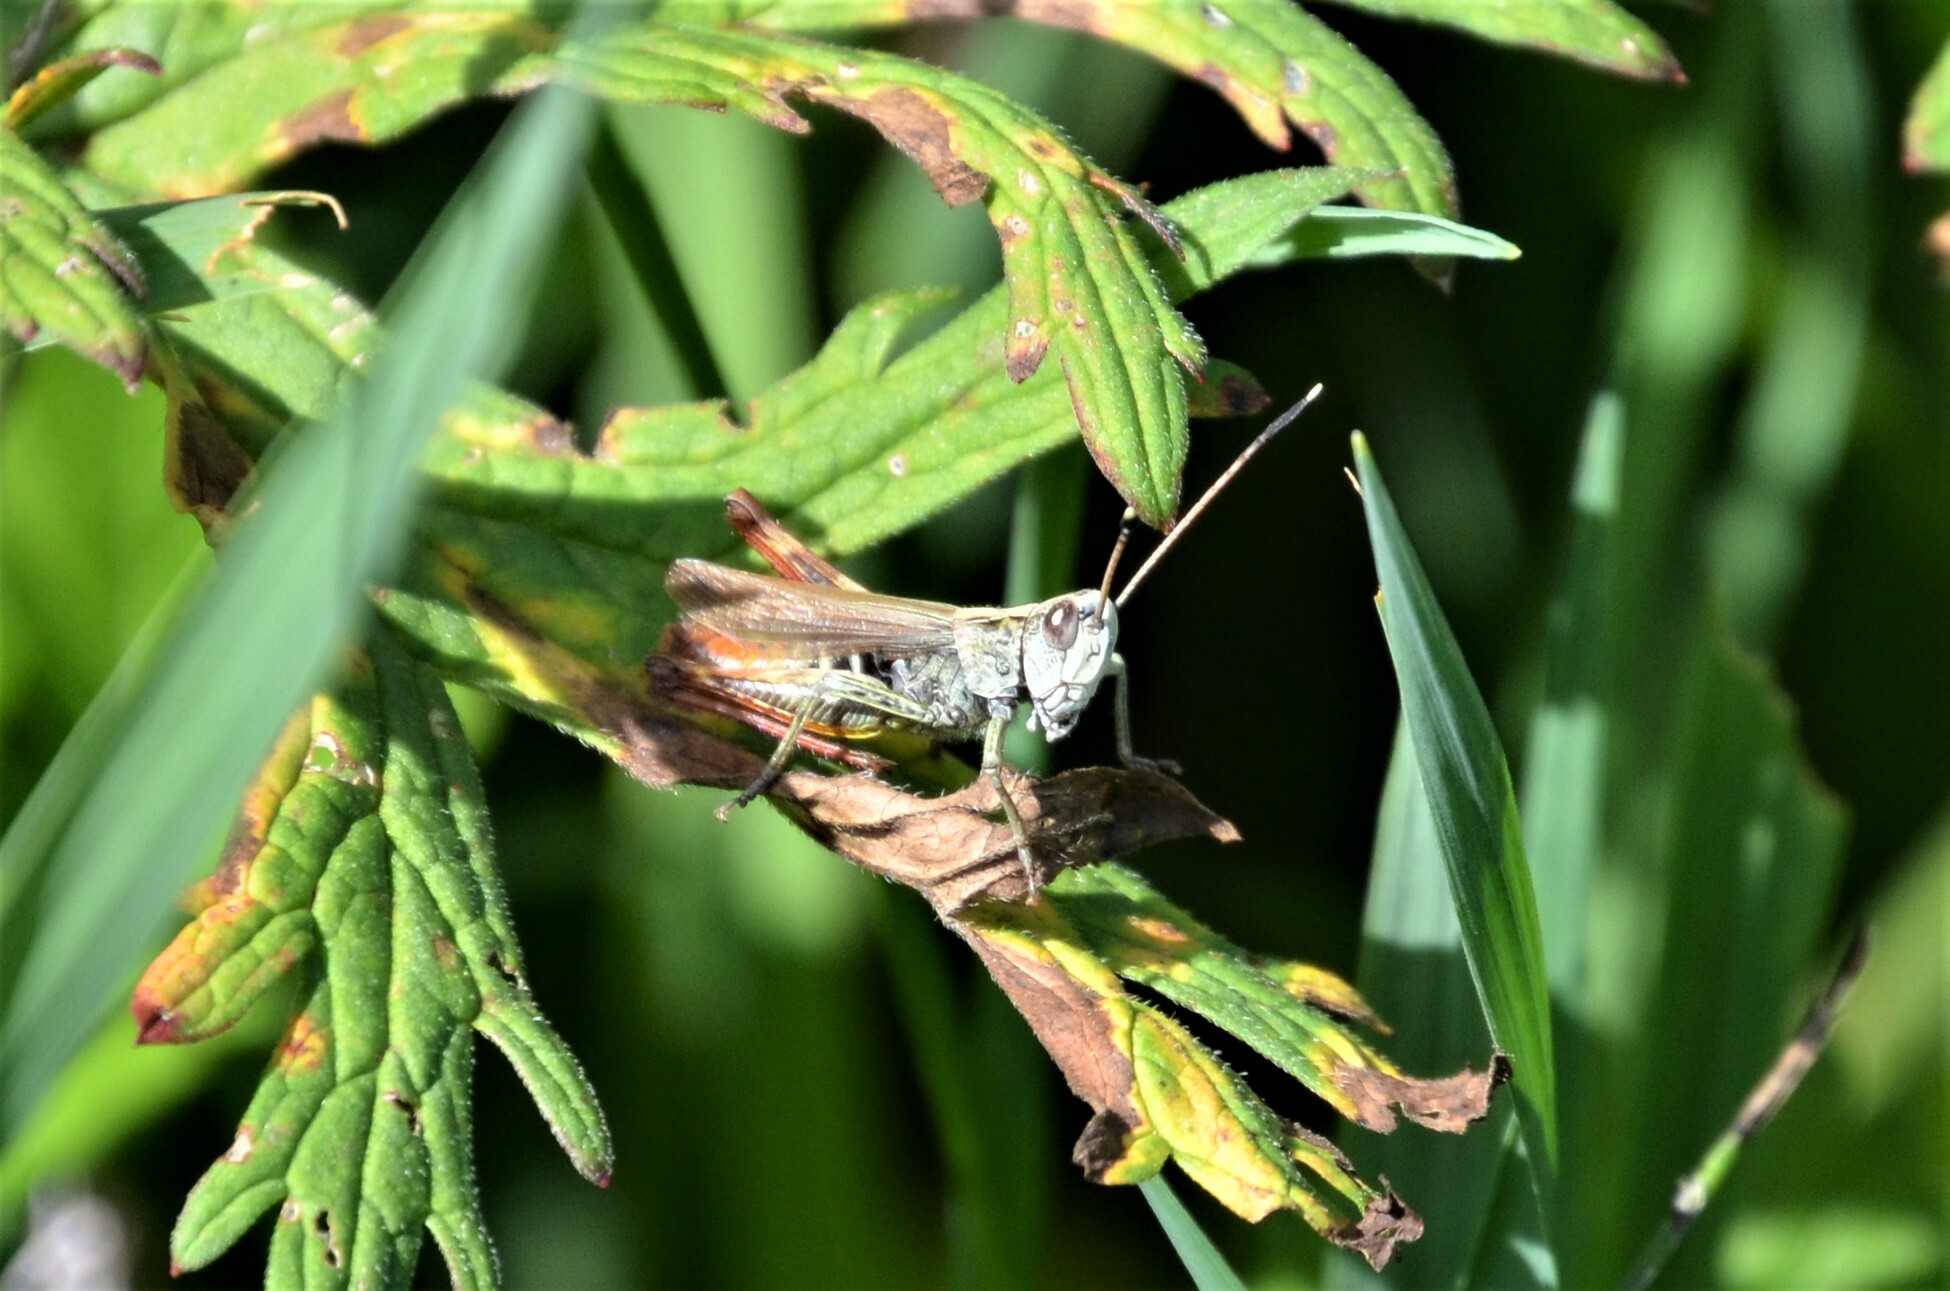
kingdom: Animalia
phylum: Arthropoda
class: Insecta
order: Orthoptera
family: Acrididae
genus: Gomphocerippus
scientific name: Gomphocerippus rufus
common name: Rufous grasshopper
